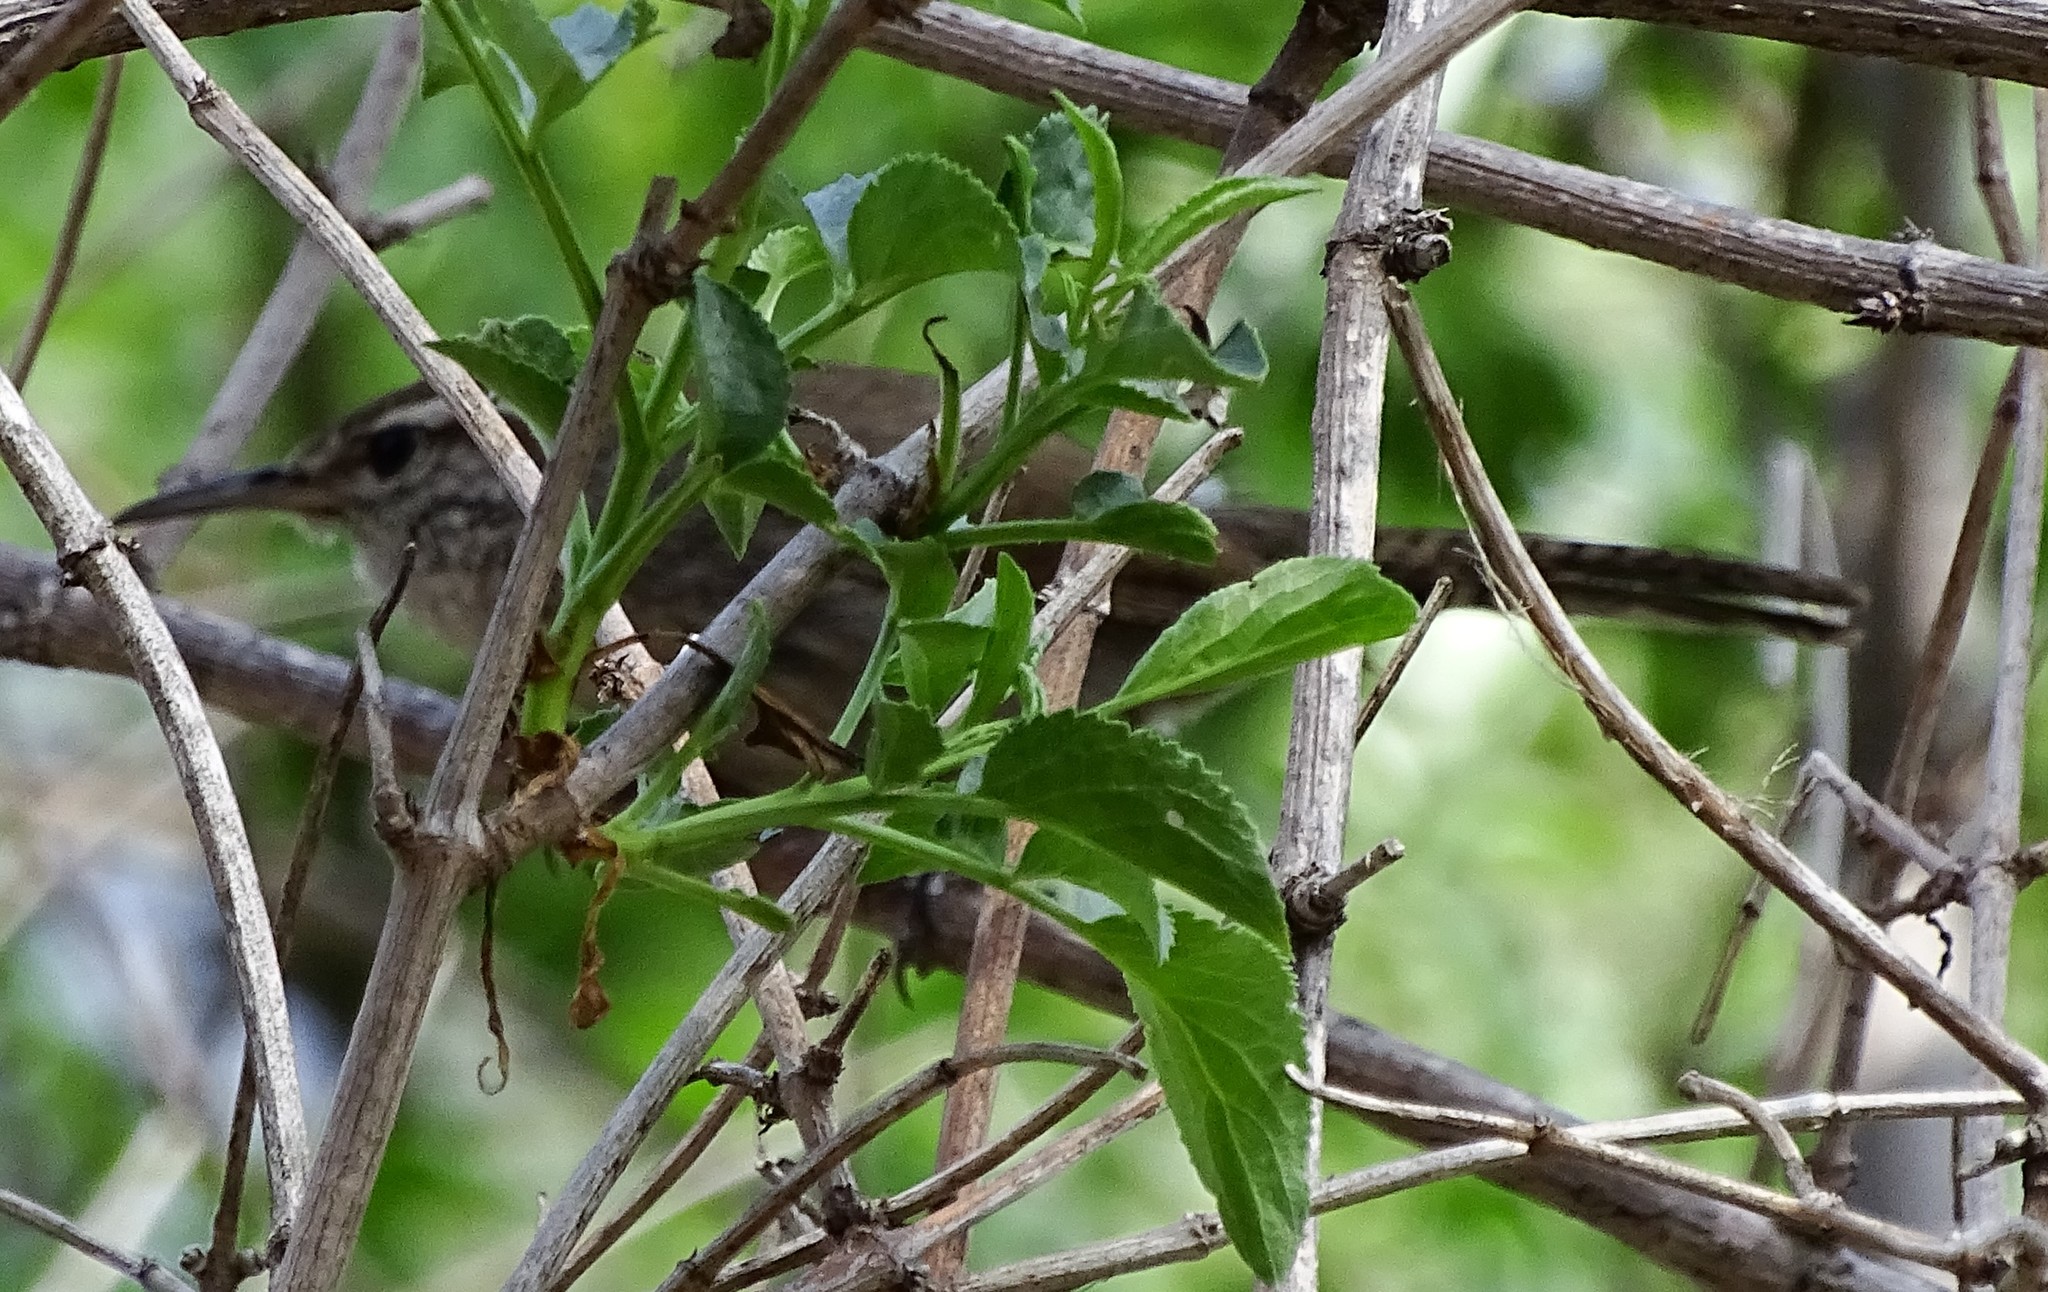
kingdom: Animalia
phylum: Chordata
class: Aves
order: Passeriformes
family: Troglodytidae
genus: Thryomanes
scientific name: Thryomanes bewickii
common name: Bewick's wren
